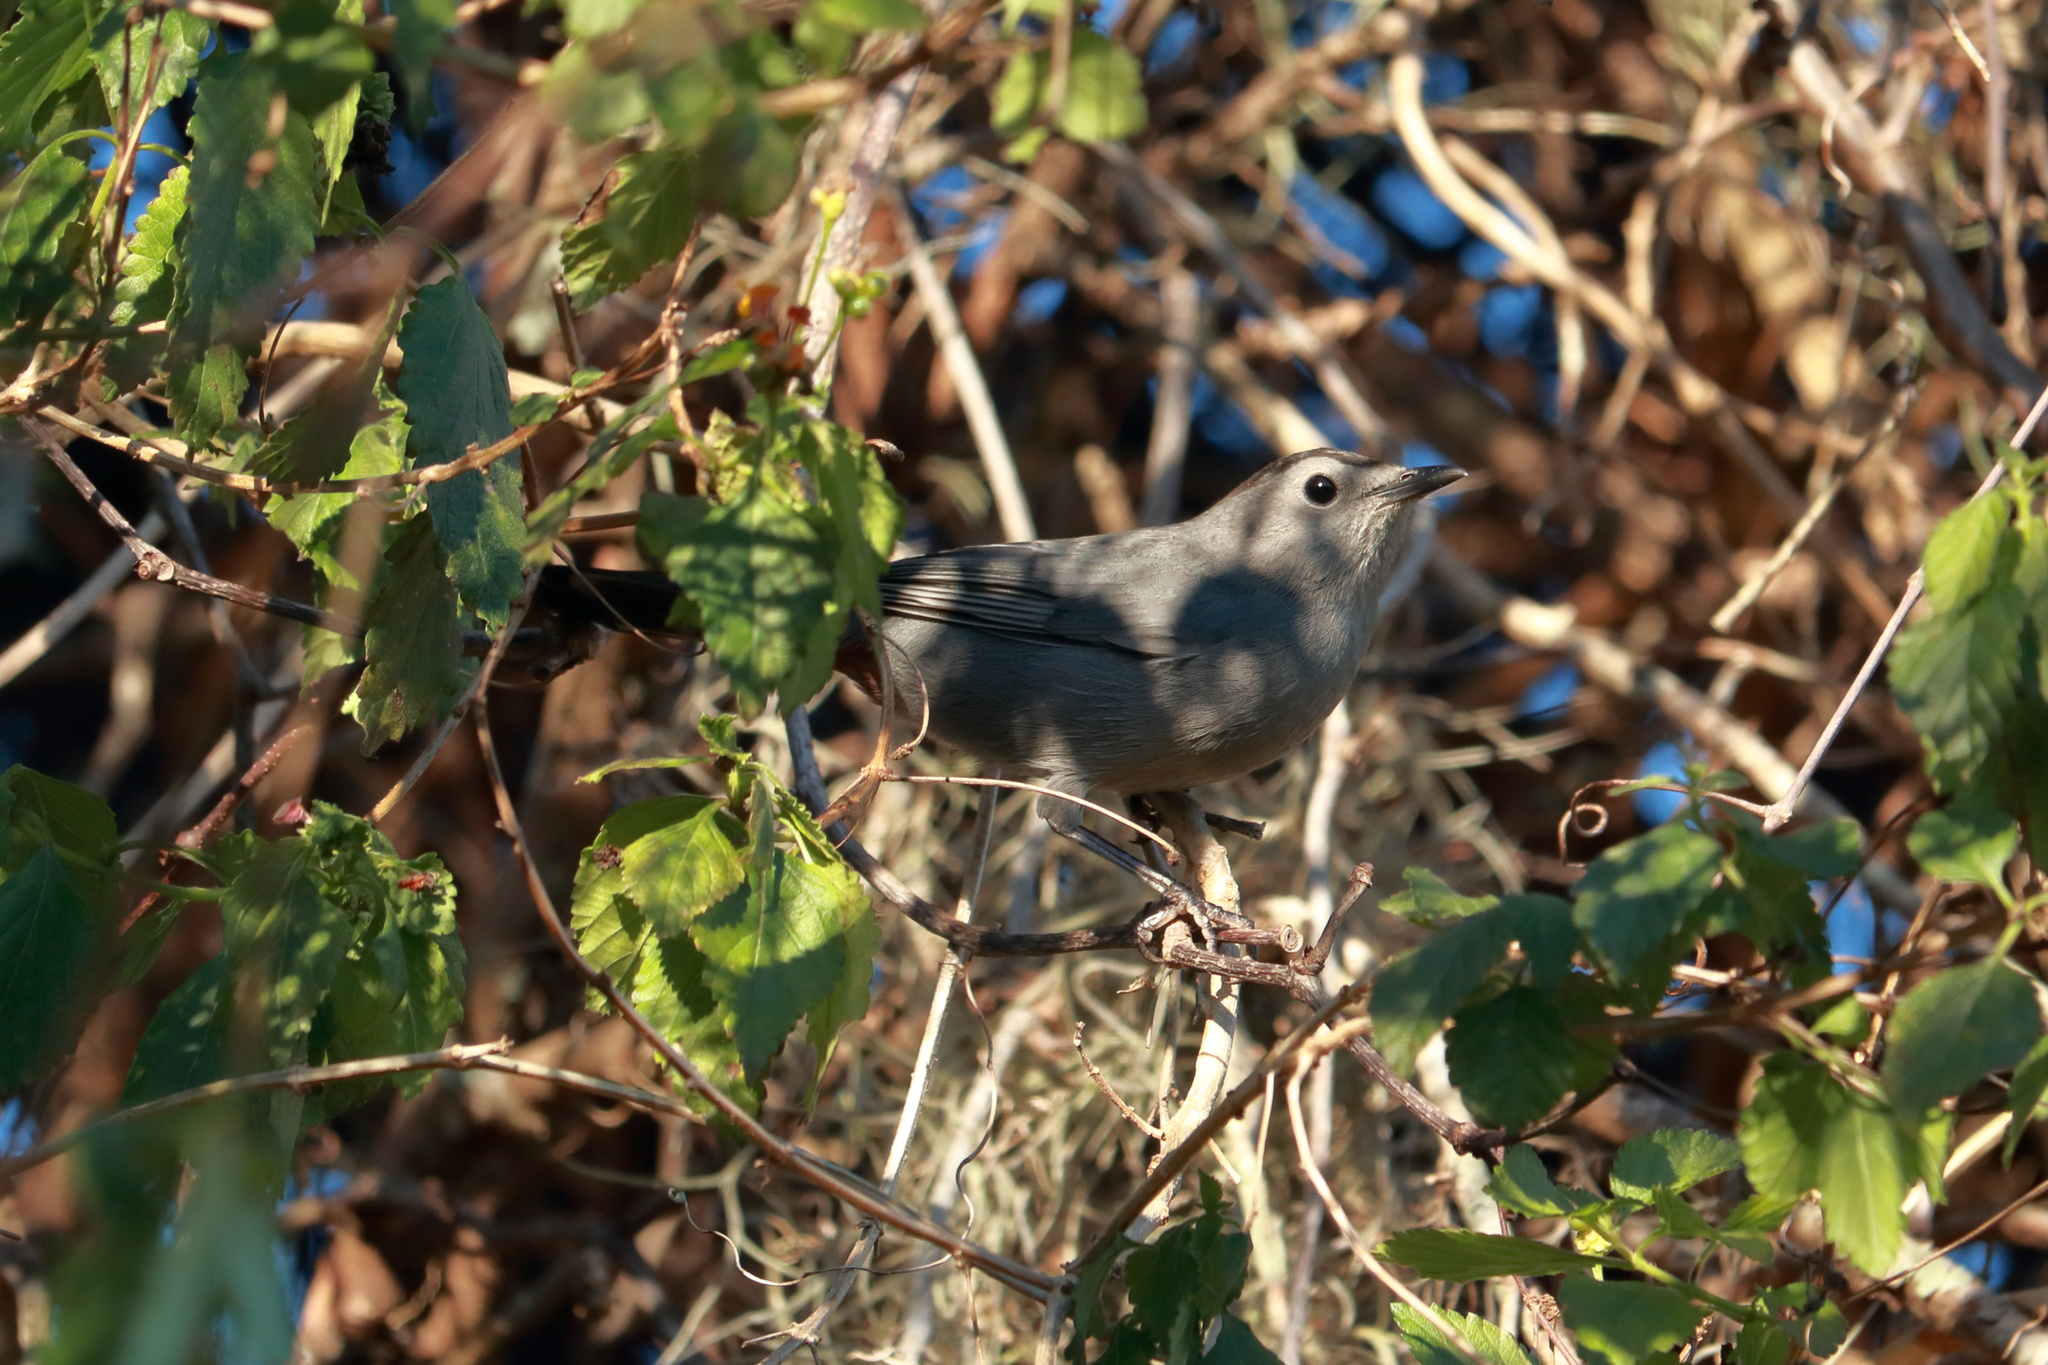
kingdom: Animalia
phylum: Chordata
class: Aves
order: Passeriformes
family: Mimidae
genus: Dumetella
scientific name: Dumetella carolinensis
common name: Gray catbird
